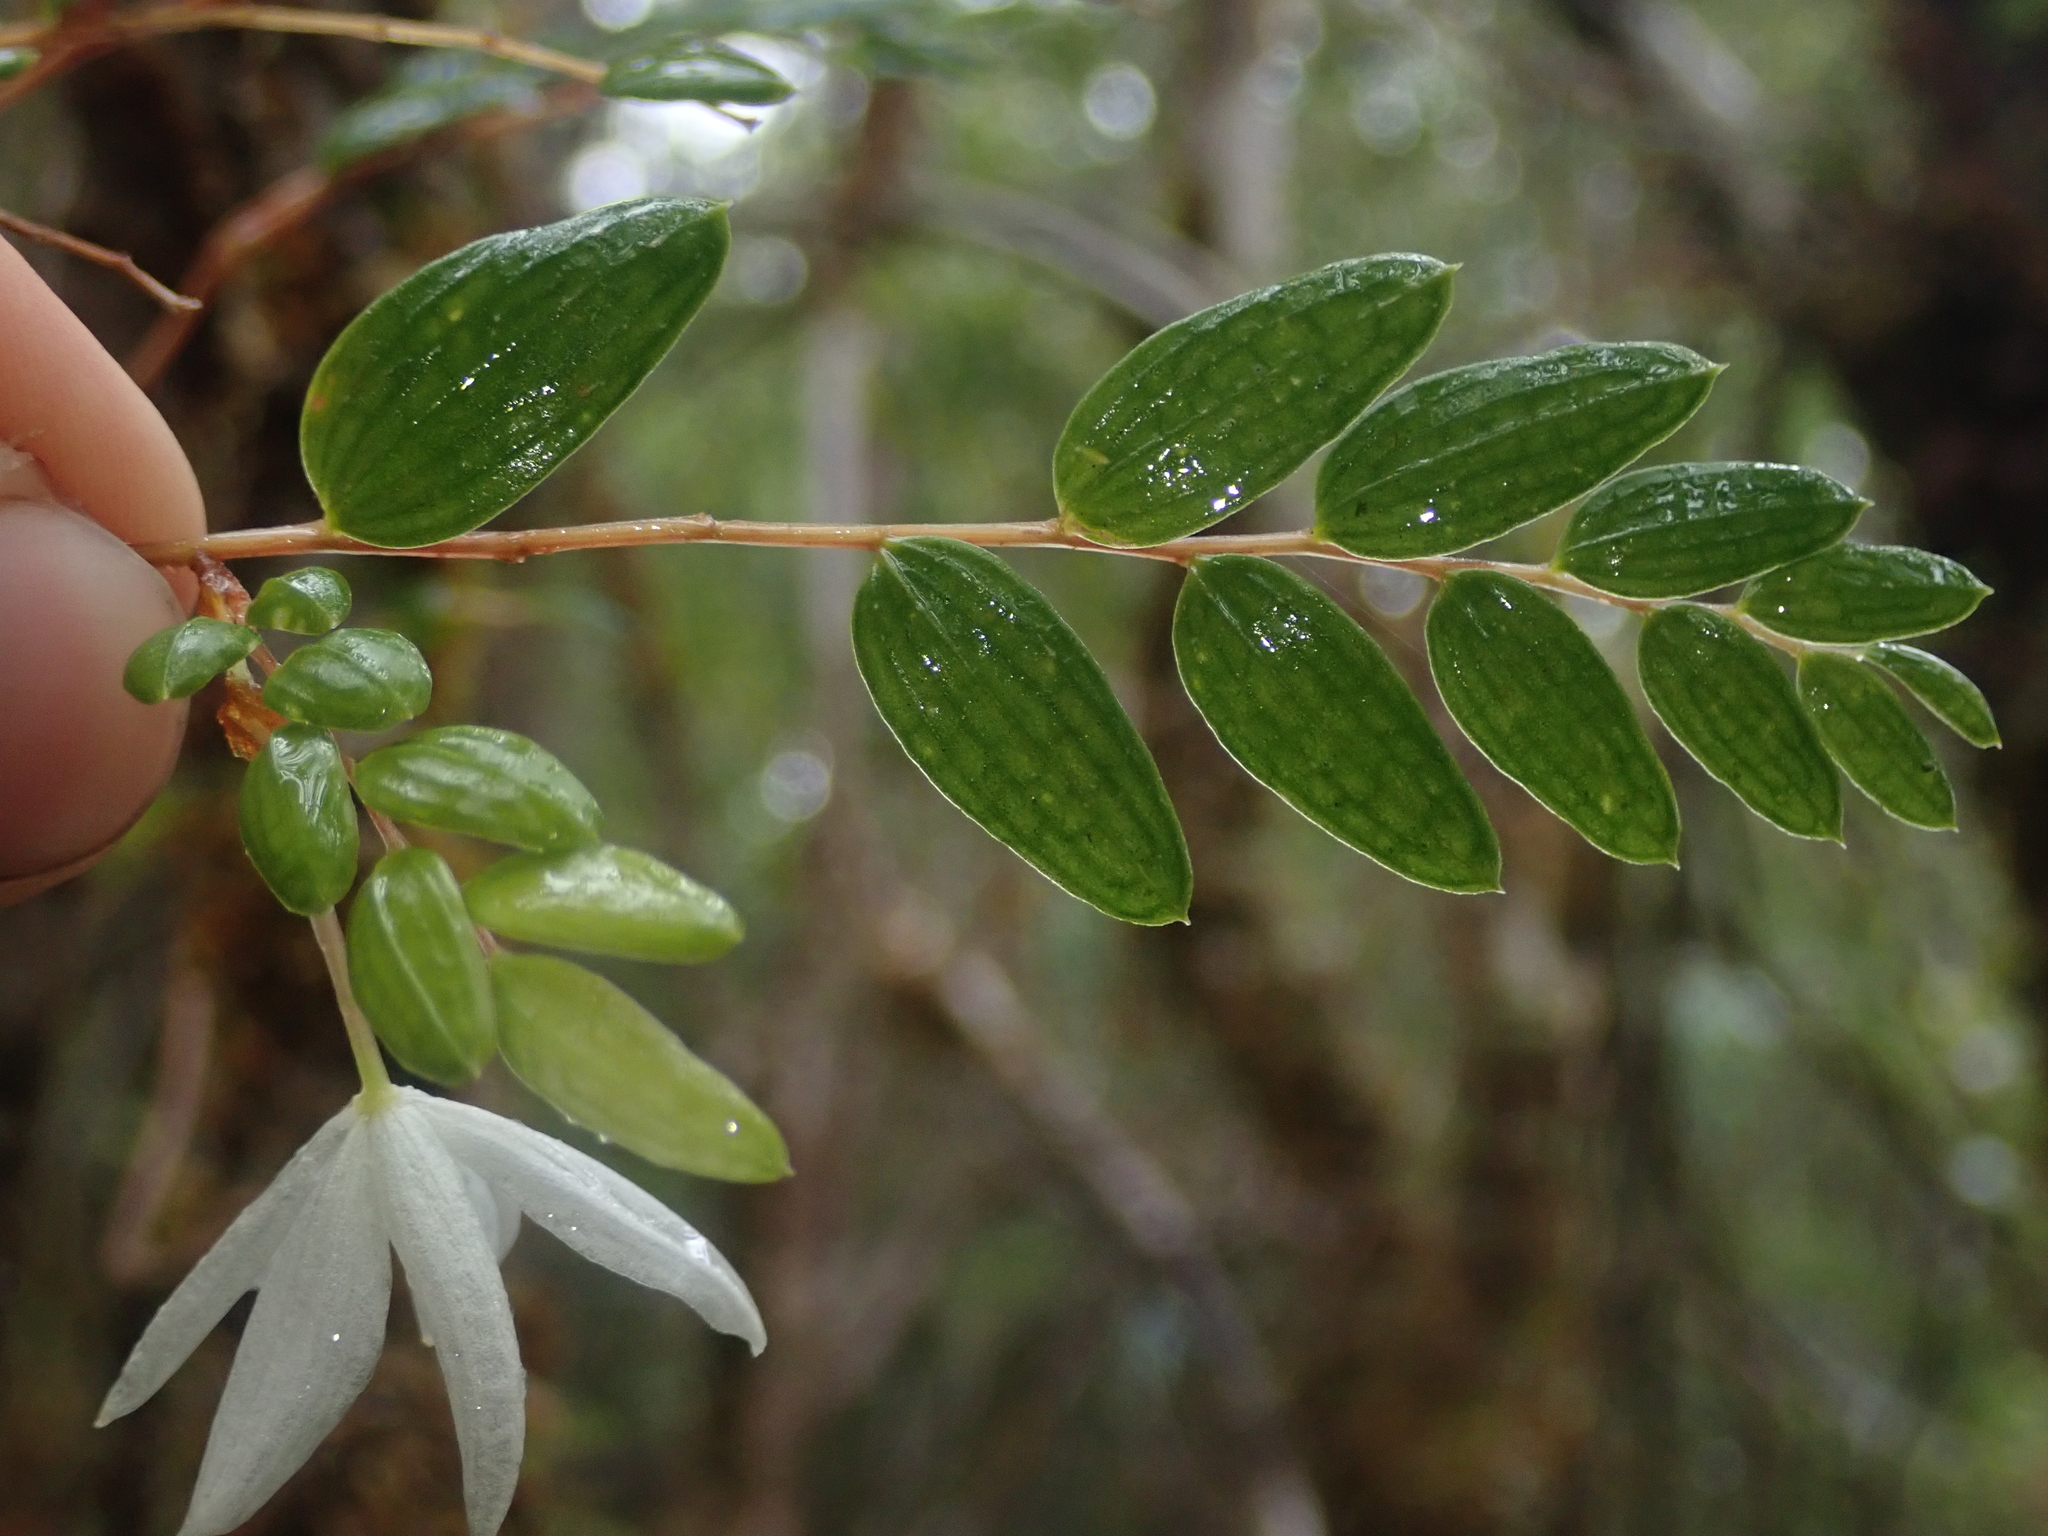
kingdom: Plantae
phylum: Tracheophyta
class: Liliopsida
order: Liliales
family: Alstroemeriaceae
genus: Luzuriaga
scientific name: Luzuriaga polyphylla
